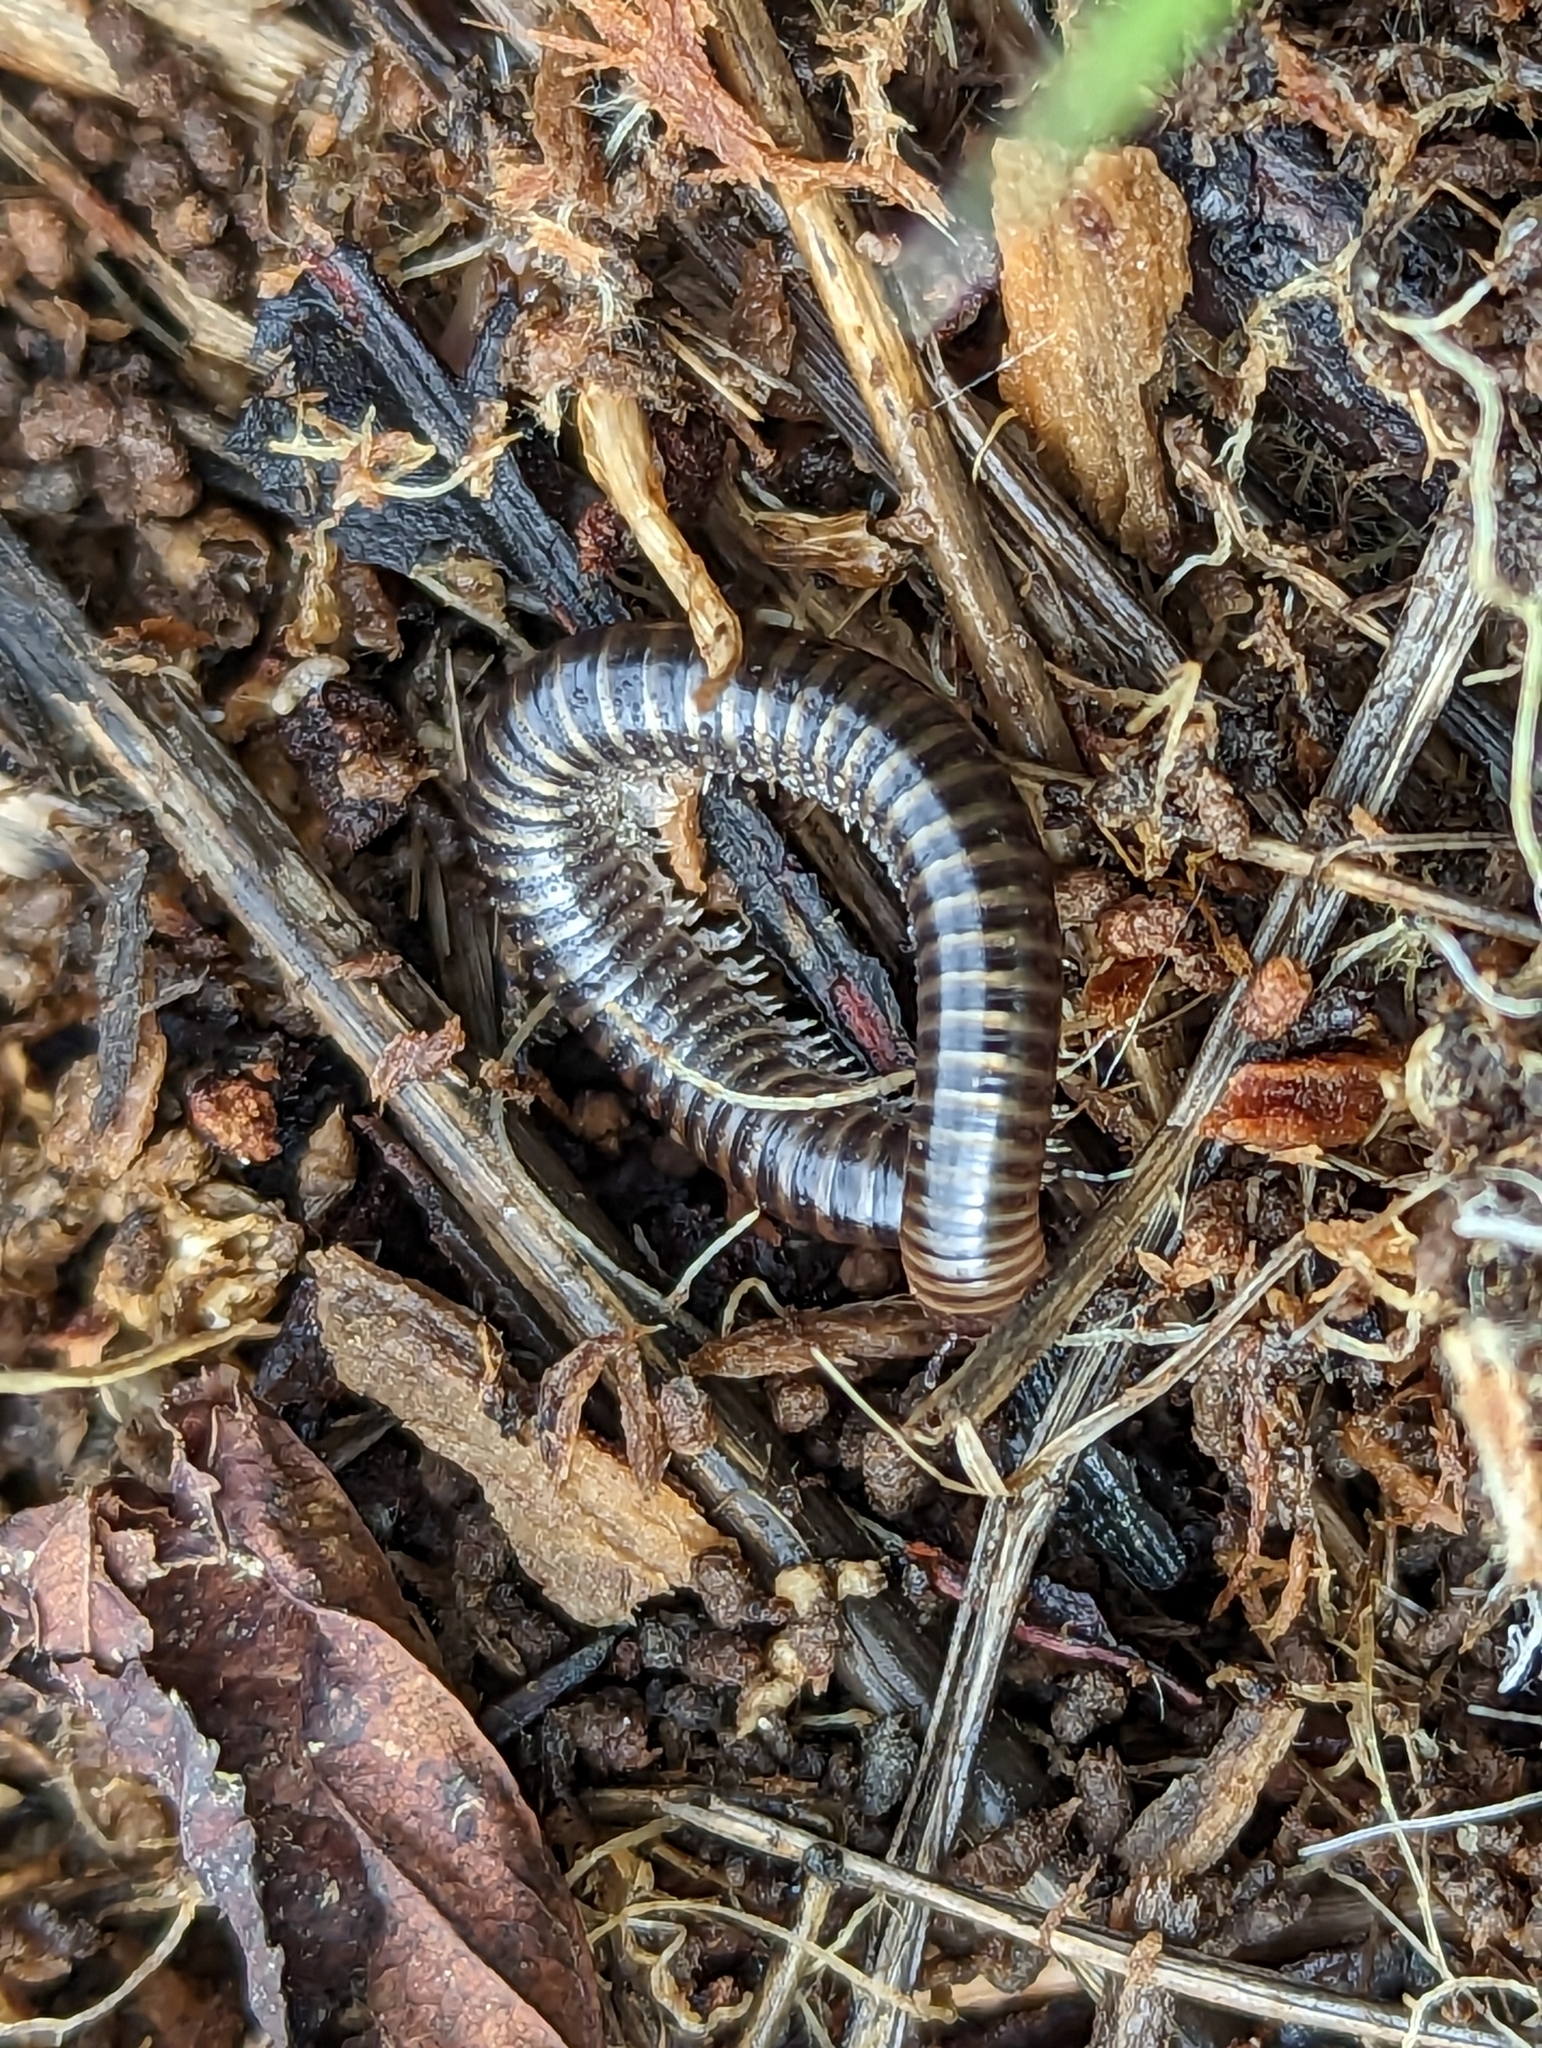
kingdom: Animalia
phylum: Arthropoda
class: Diplopoda
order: Julida
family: Julidae
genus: Cylindroiulus
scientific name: Cylindroiulus caeruleocinctus
